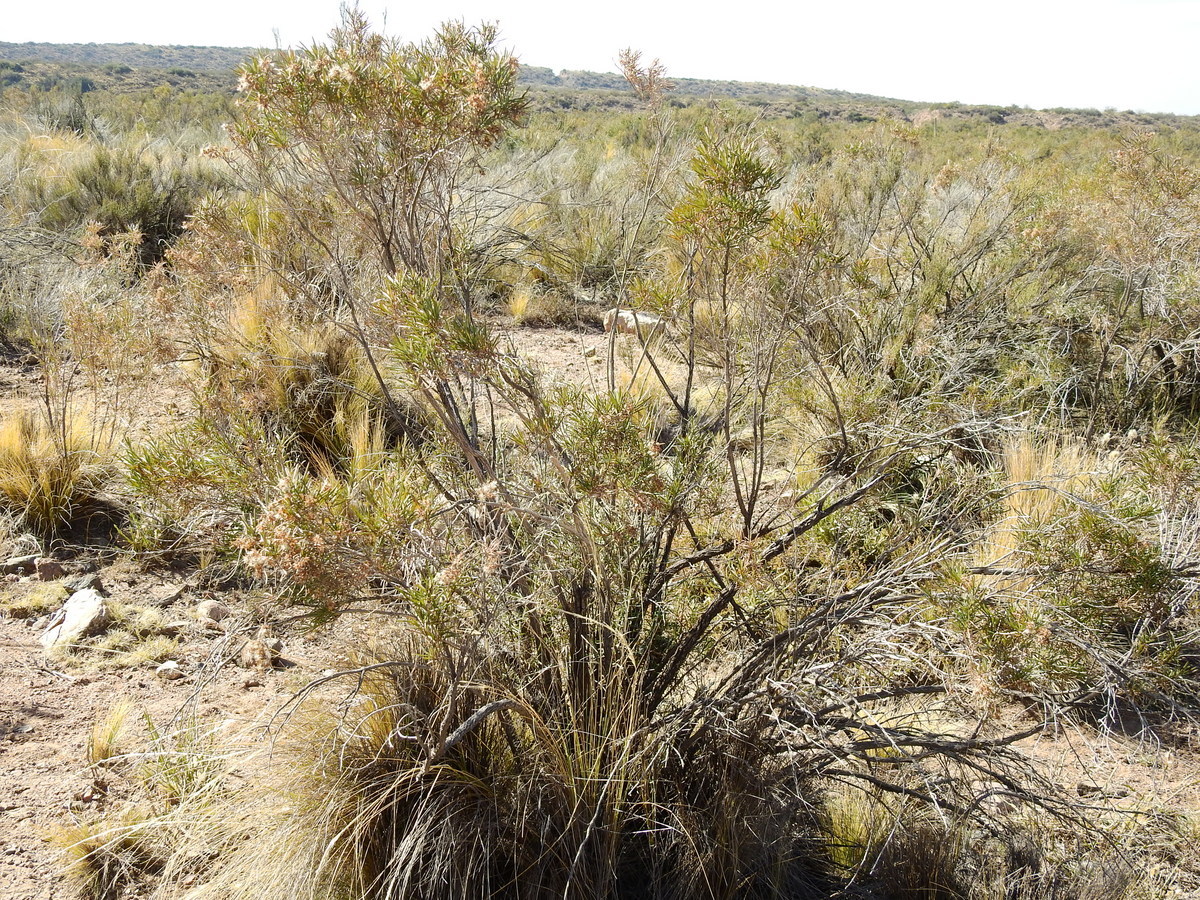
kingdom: Plantae
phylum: Tracheophyta
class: Magnoliopsida
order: Asterales
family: Asteraceae
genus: Acanthostyles
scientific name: Acanthostyles buniifolius
